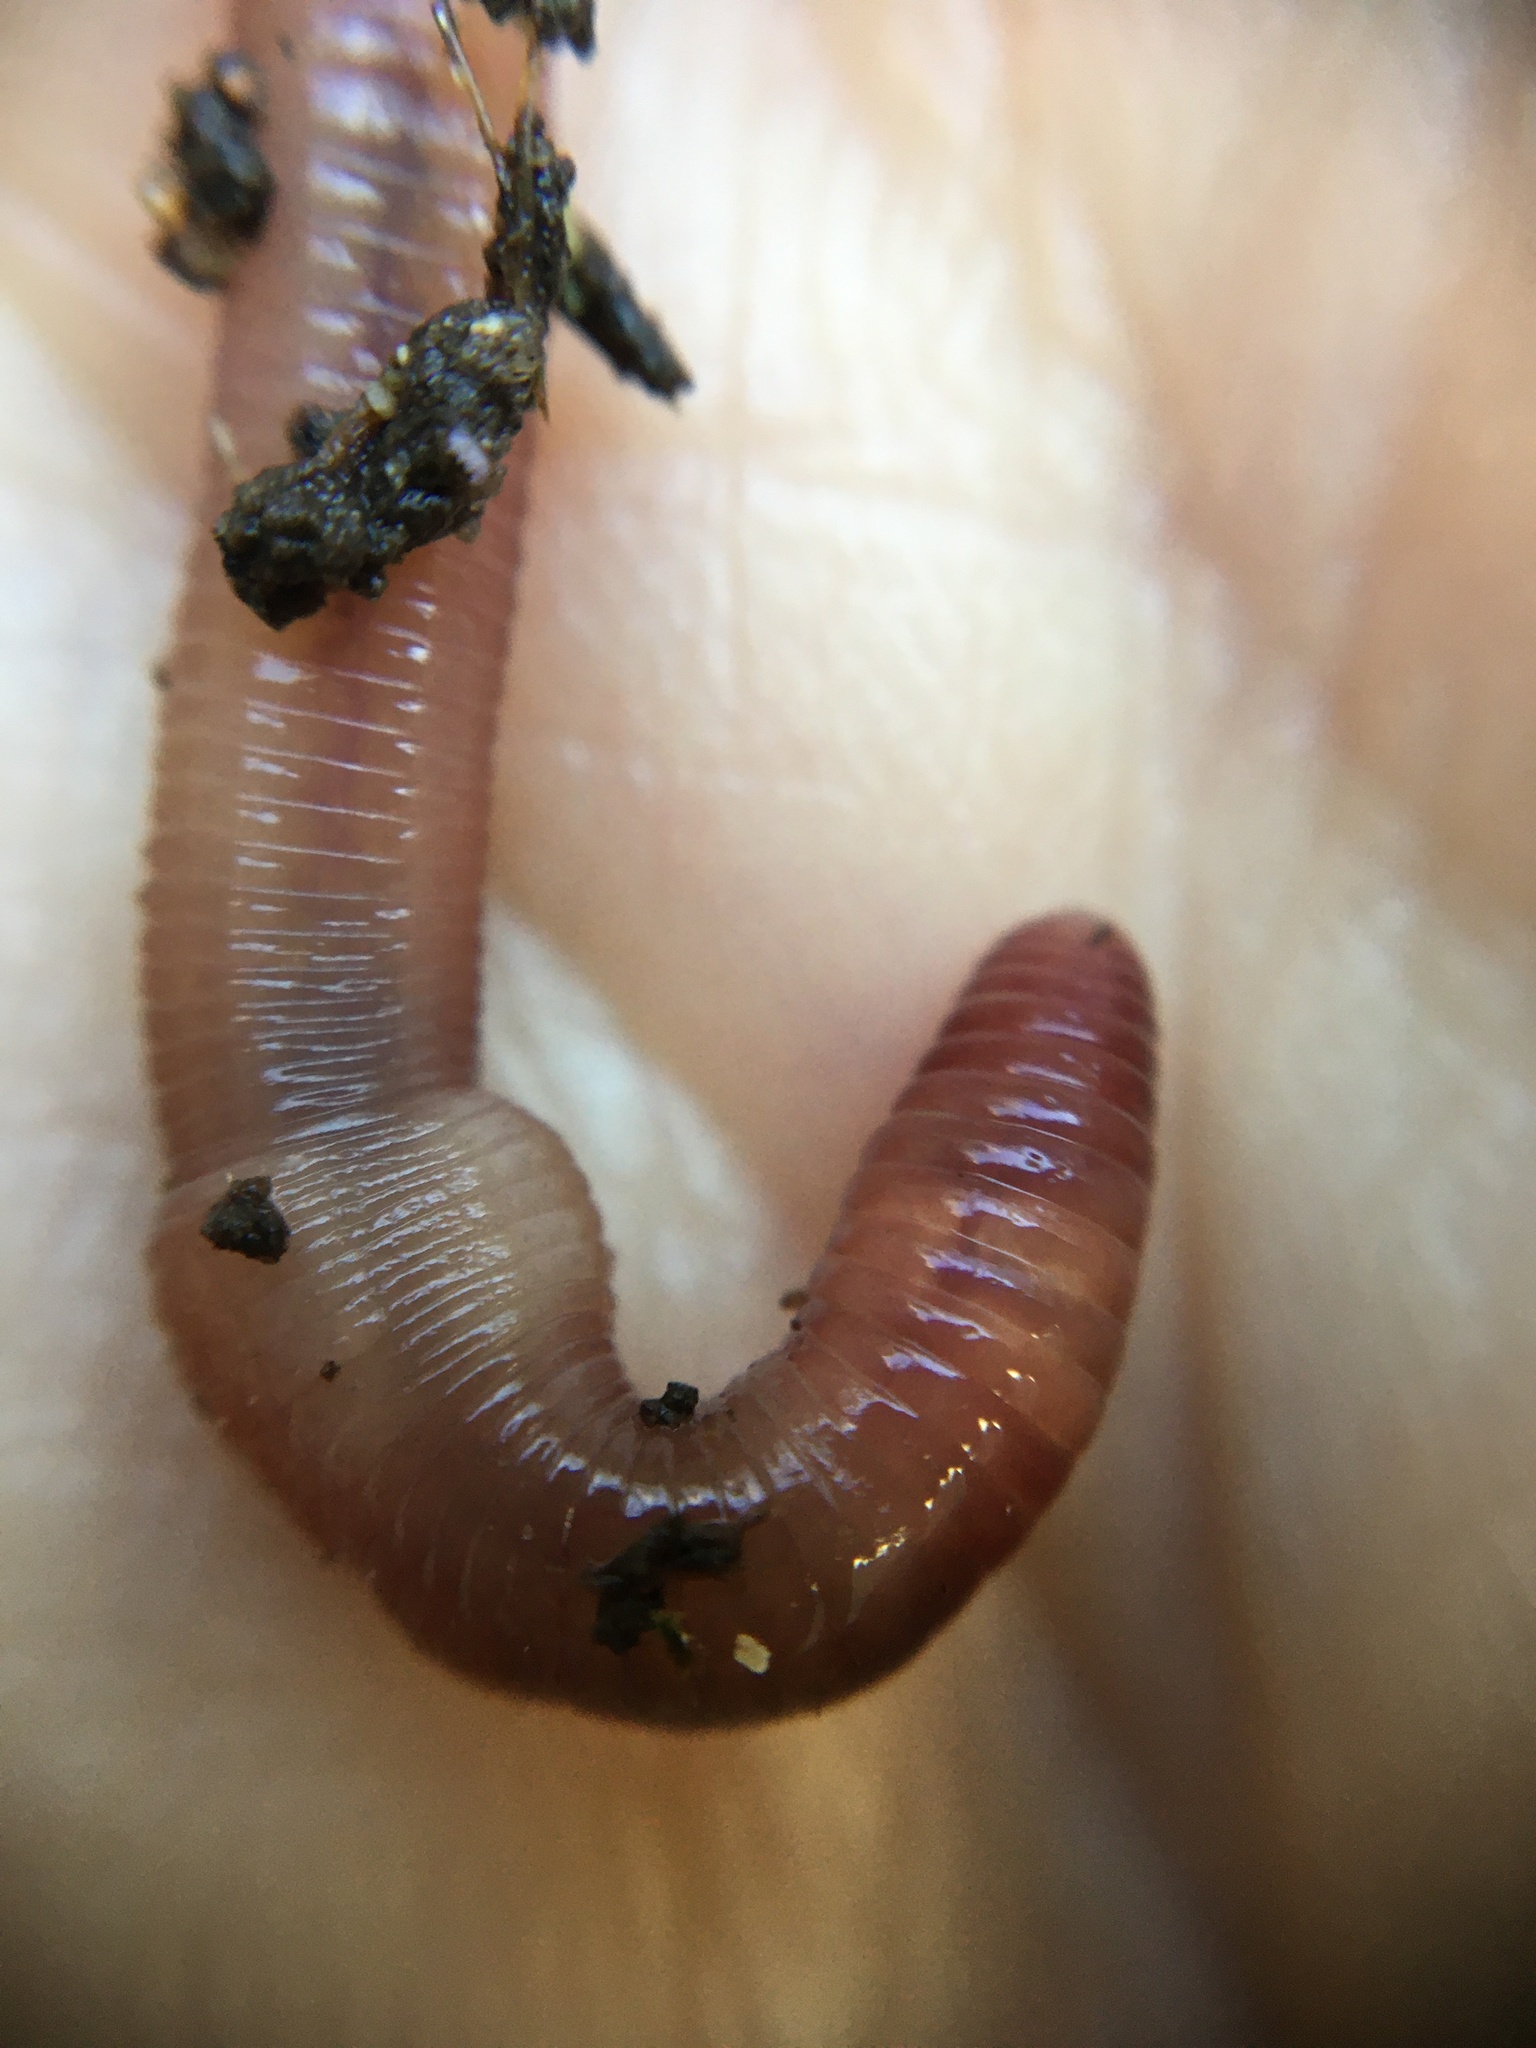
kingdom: Animalia
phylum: Annelida
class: Clitellata
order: Crassiclitellata
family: Lumbricidae
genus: Lumbricus
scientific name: Lumbricus terrestris
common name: Common earthworm
